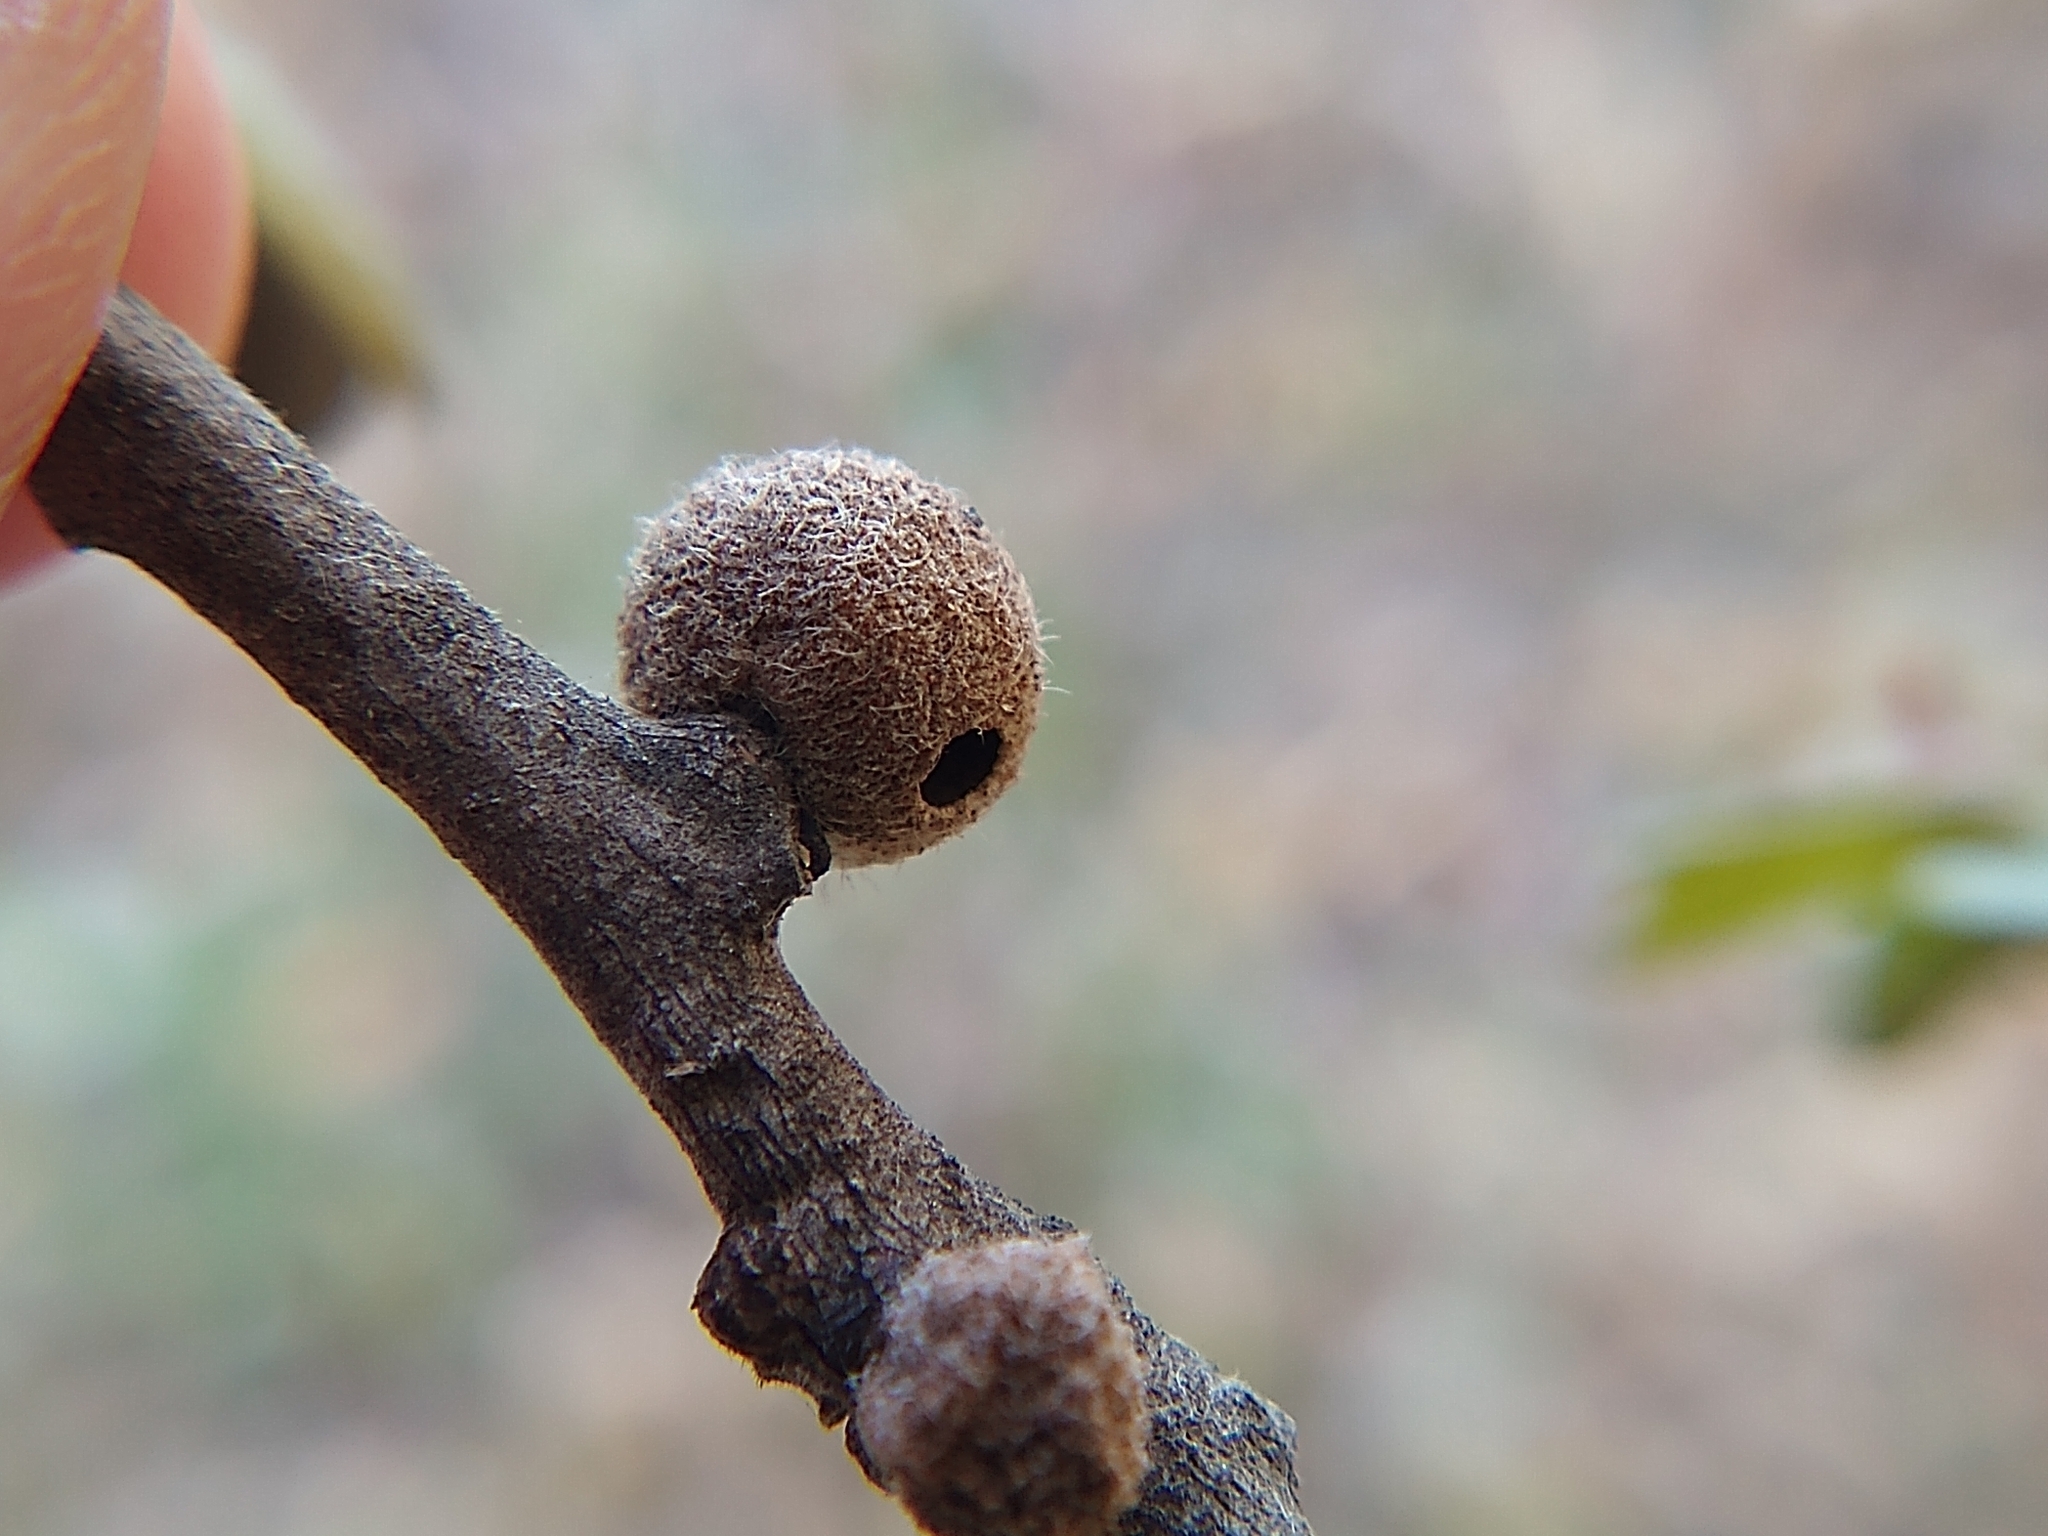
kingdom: Animalia
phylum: Arthropoda
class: Insecta
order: Hymenoptera
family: Cynipidae
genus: Burnettweldia
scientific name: Burnettweldia
